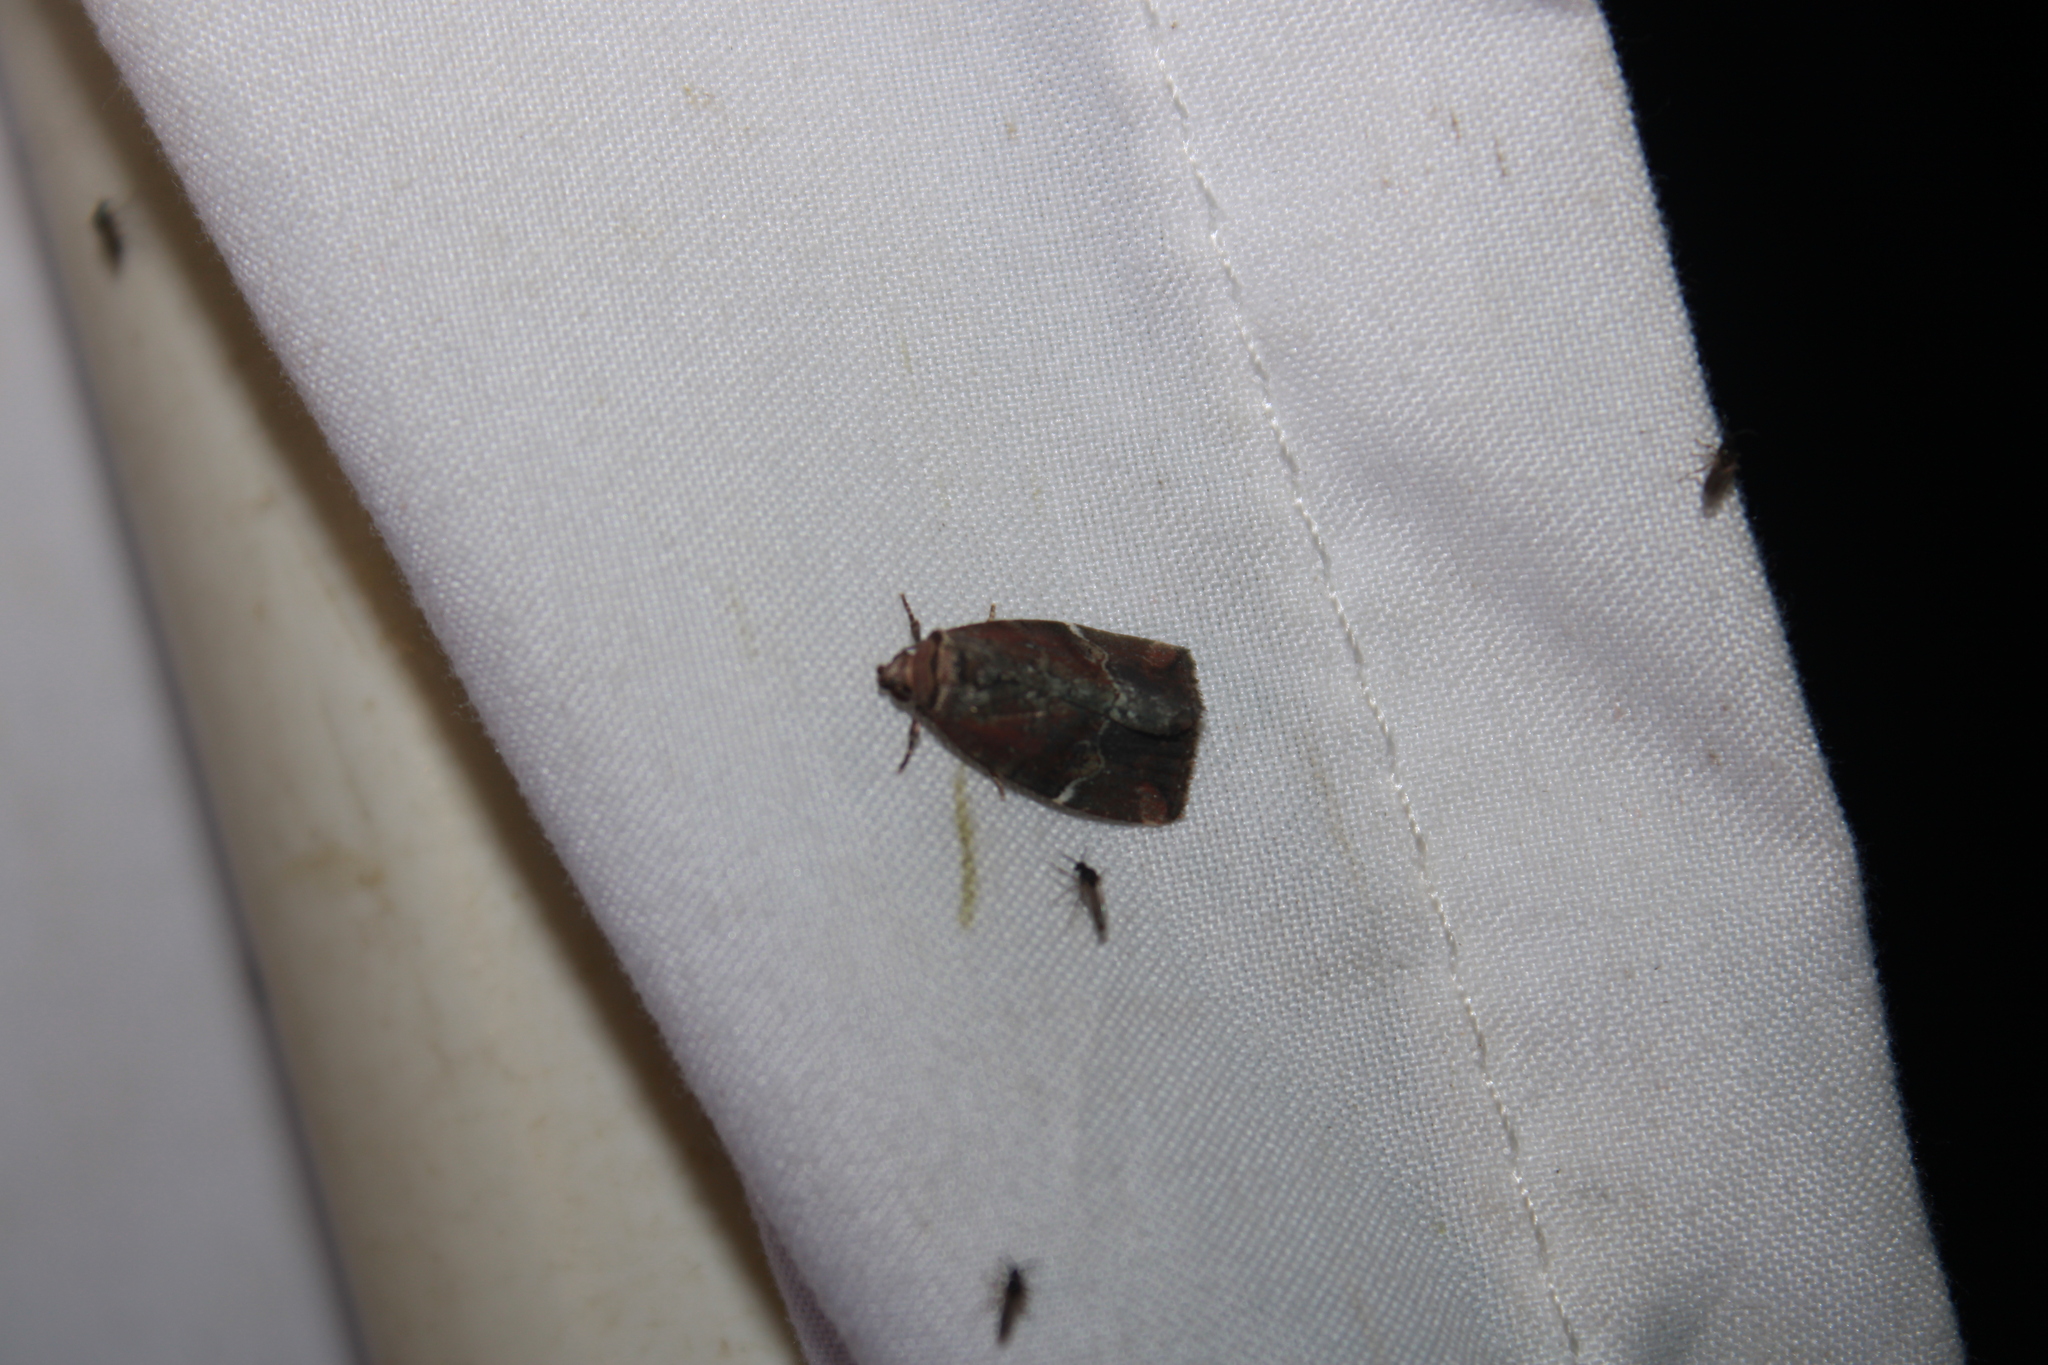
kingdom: Animalia
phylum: Arthropoda
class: Insecta
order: Lepidoptera
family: Noctuidae
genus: Elaphria
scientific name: Elaphria versicolor
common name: Fir harlequin
